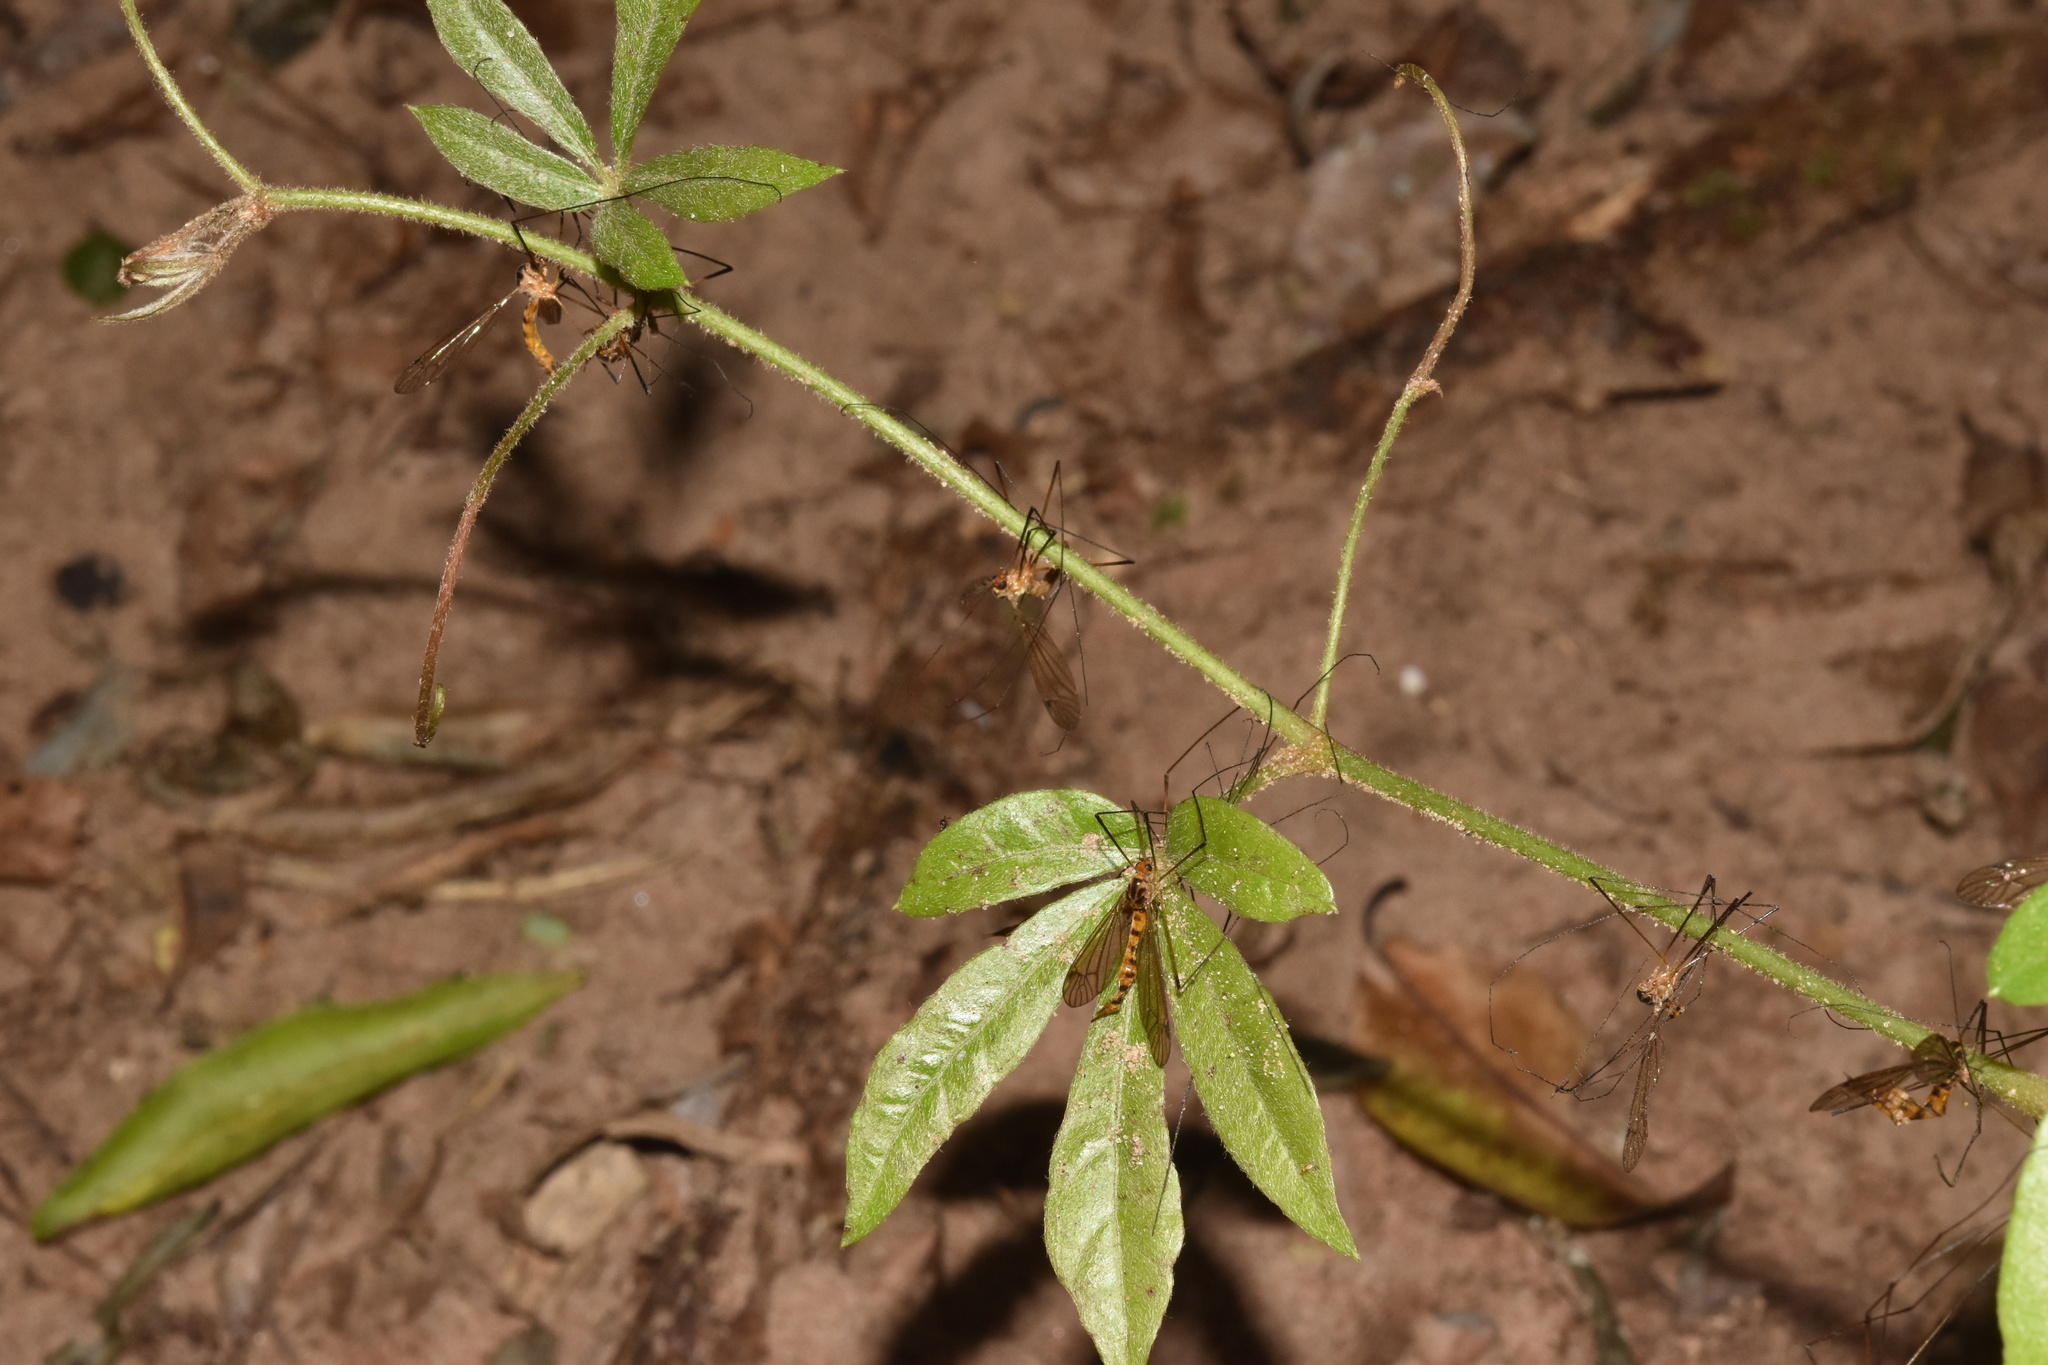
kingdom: Plantae
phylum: Tracheophyta
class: Magnoliopsida
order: Vitales
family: Vitaceae
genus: Rhoicissus
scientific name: Rhoicissus digitata
